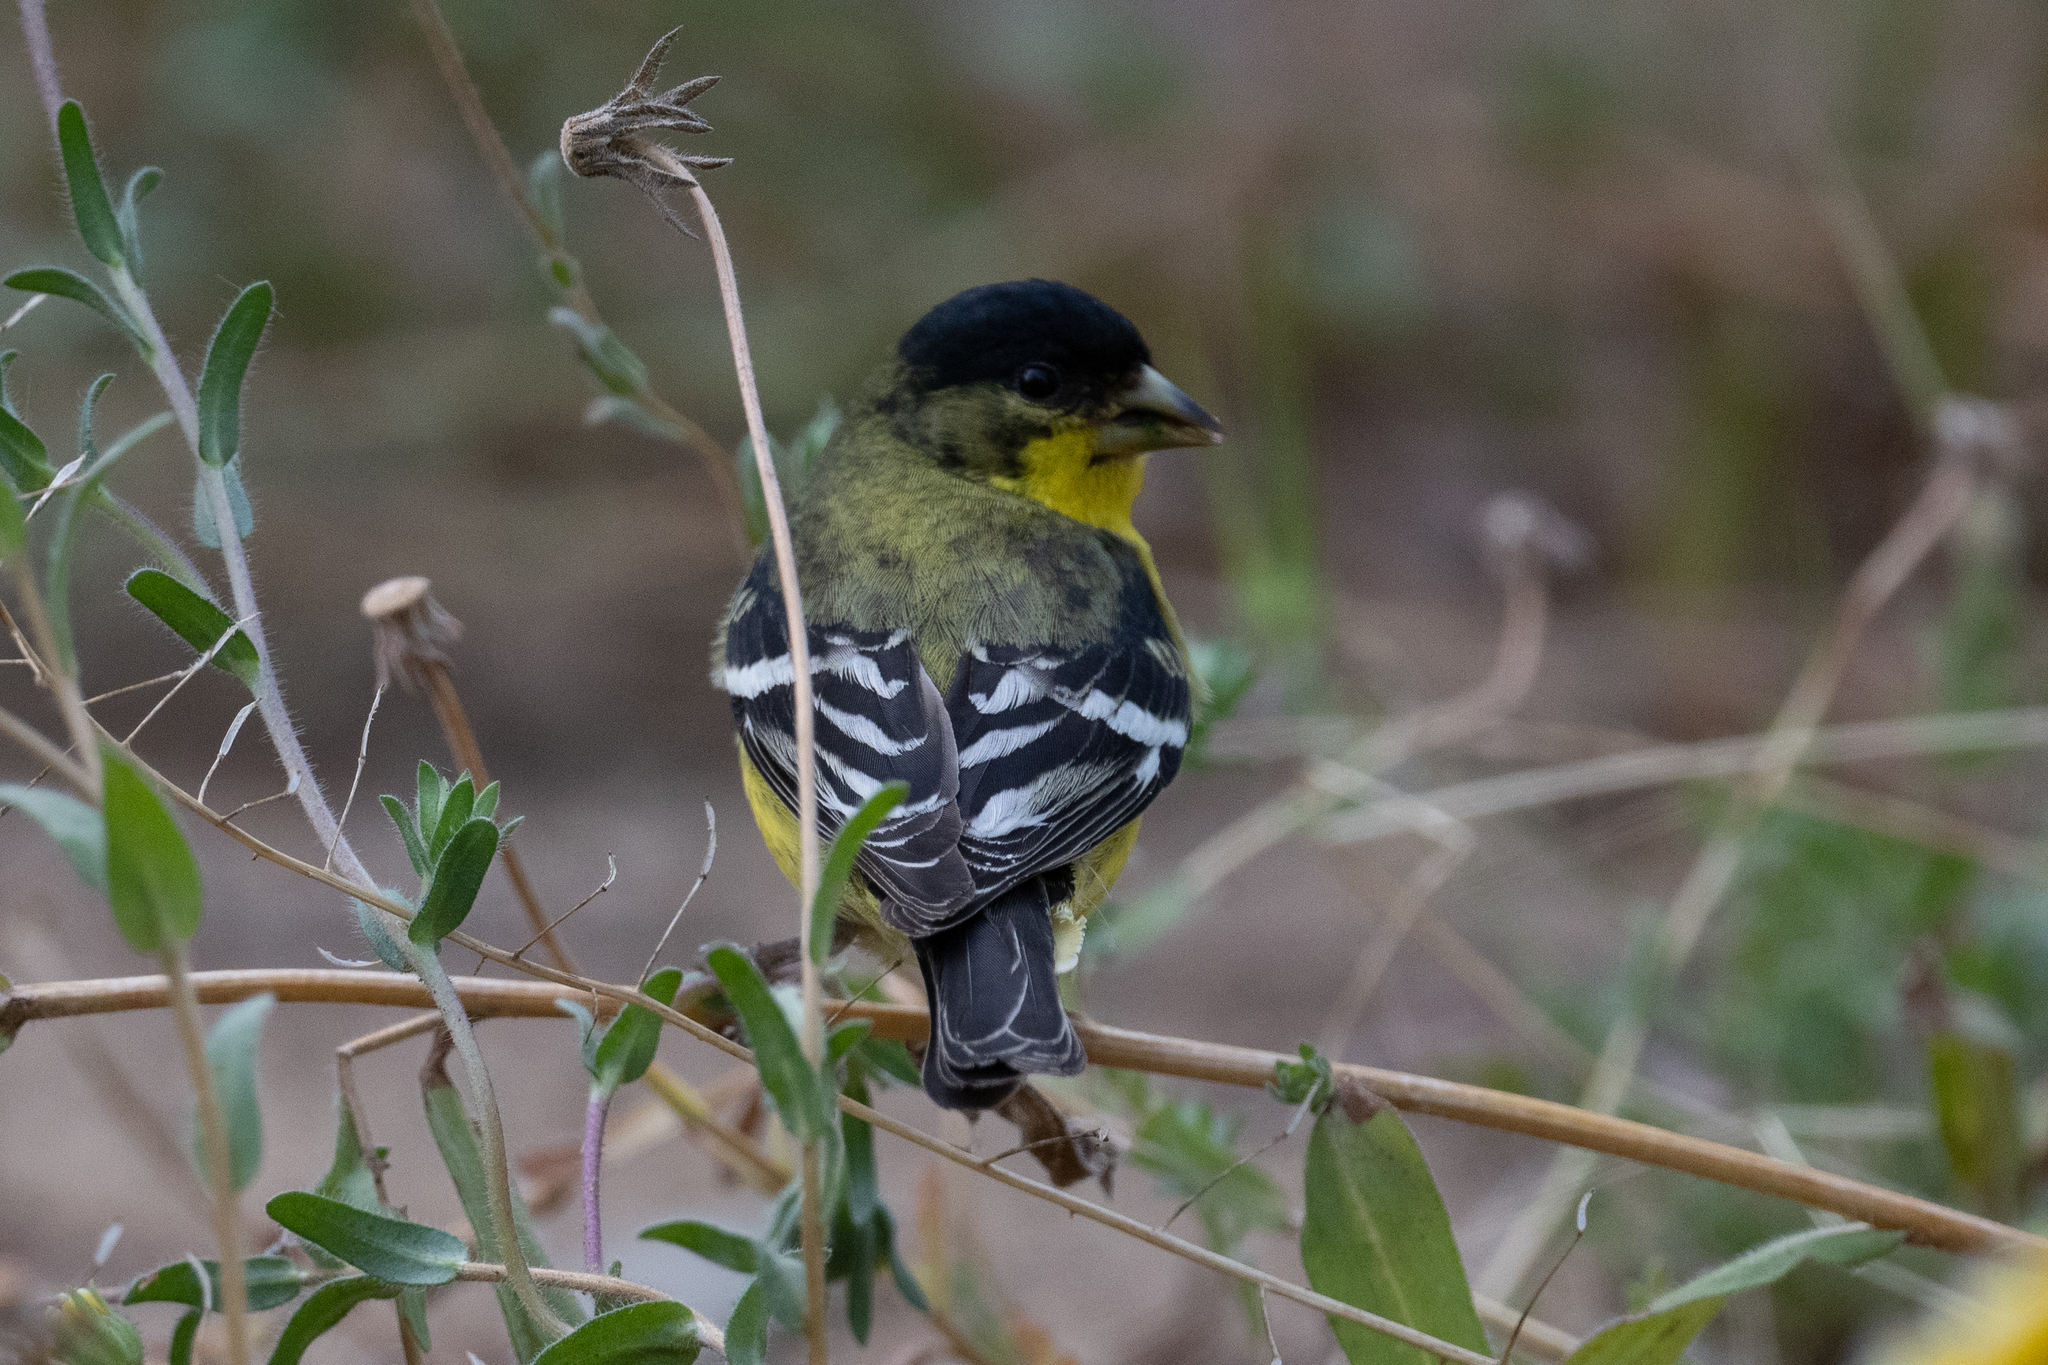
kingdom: Animalia
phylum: Chordata
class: Aves
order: Passeriformes
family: Fringillidae
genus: Spinus
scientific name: Spinus psaltria
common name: Lesser goldfinch
